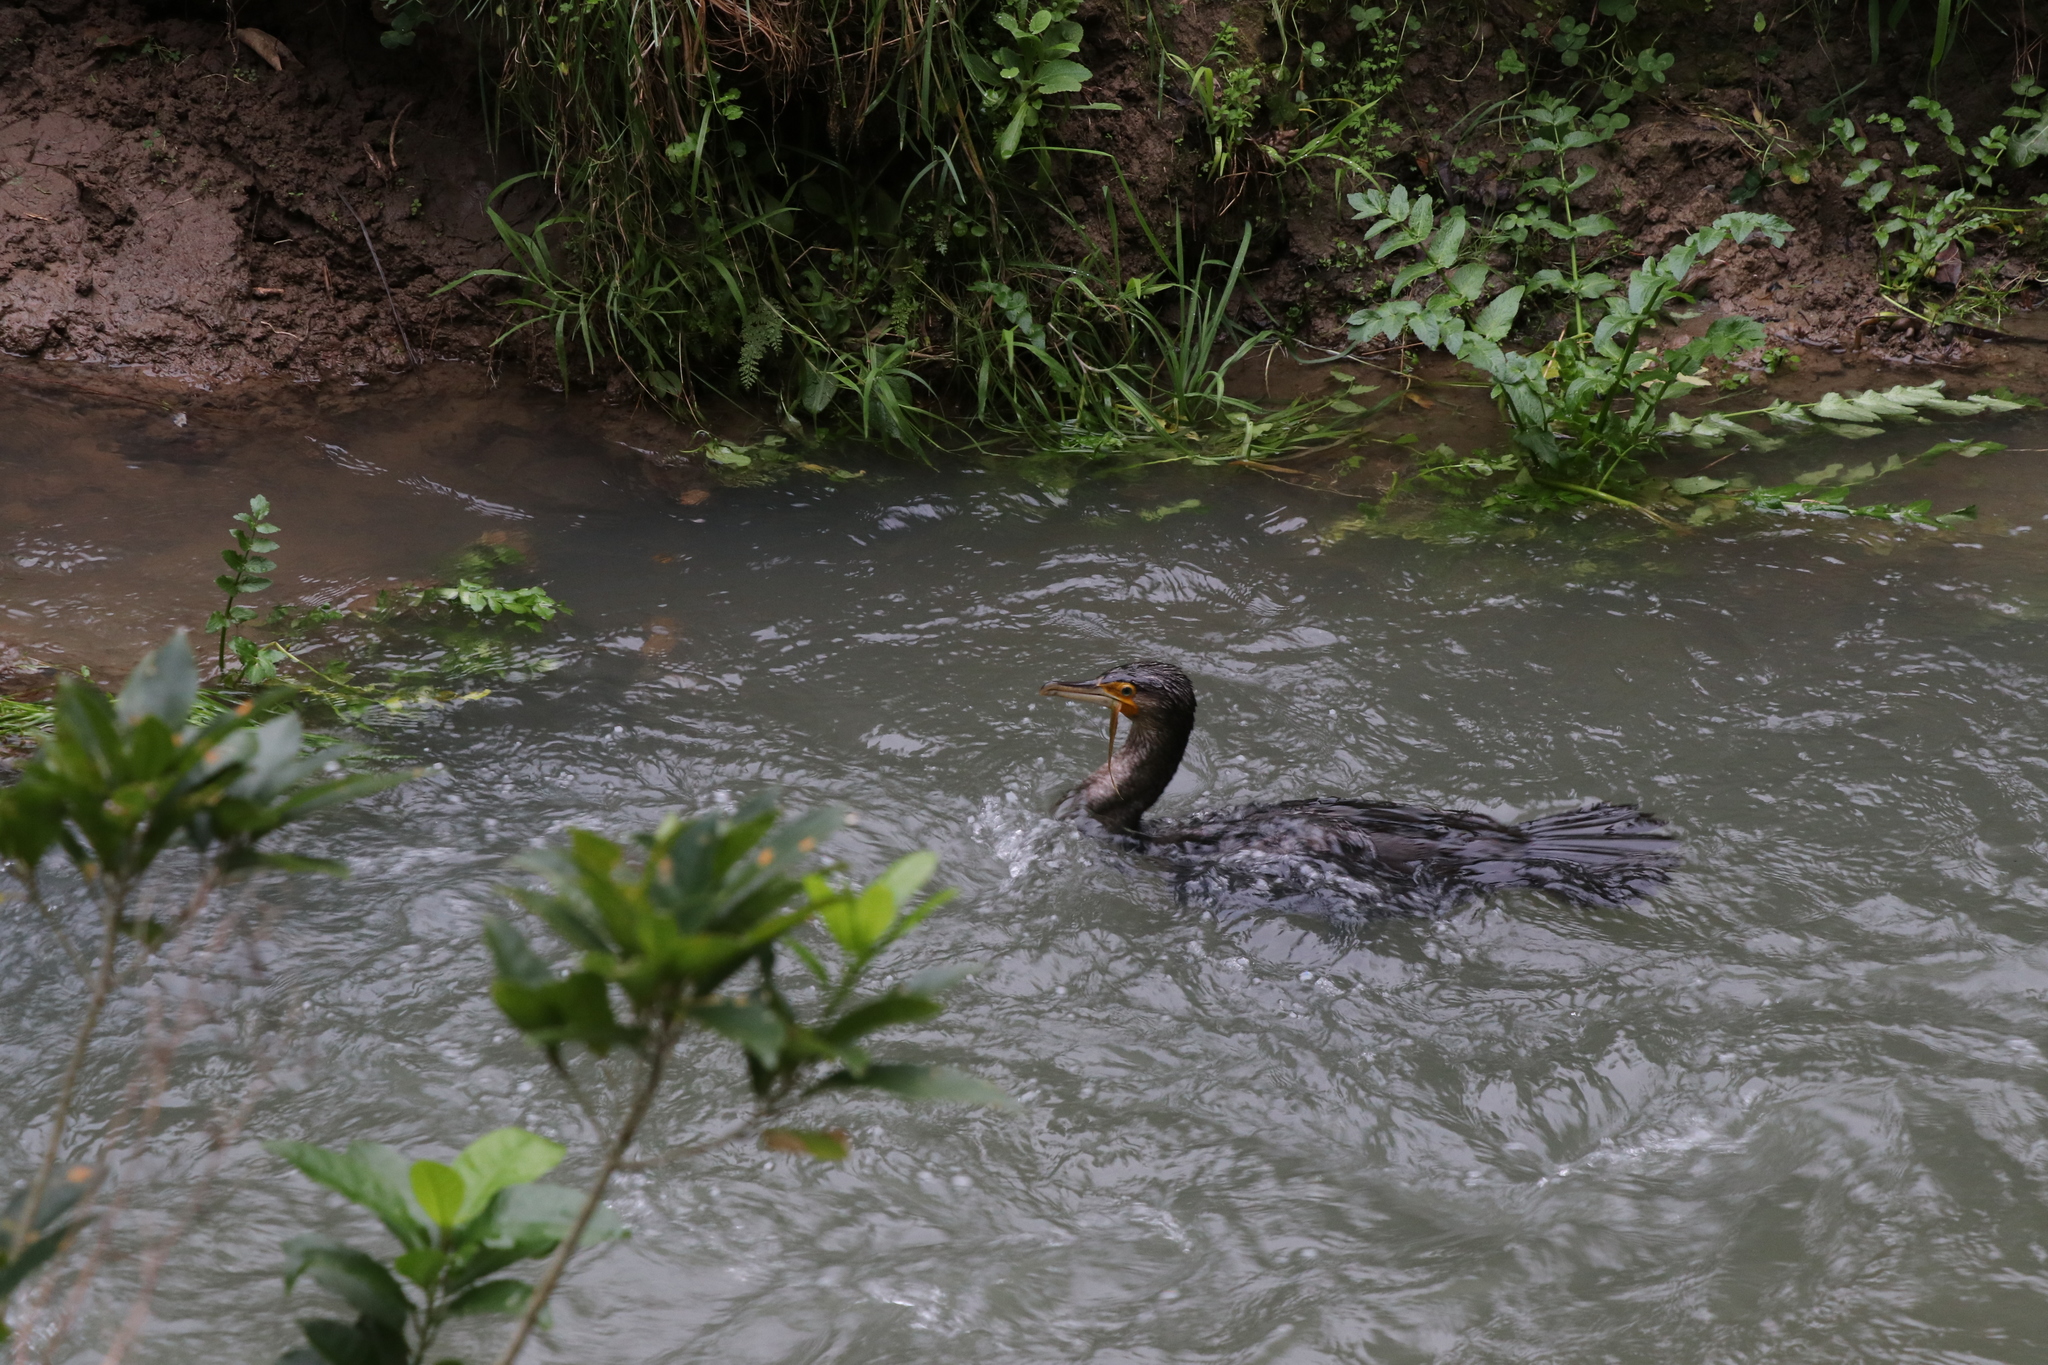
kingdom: Animalia
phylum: Chordata
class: Aves
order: Suliformes
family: Phalacrocoracidae
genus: Phalacrocorax
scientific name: Phalacrocorax carbo
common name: Great cormorant
